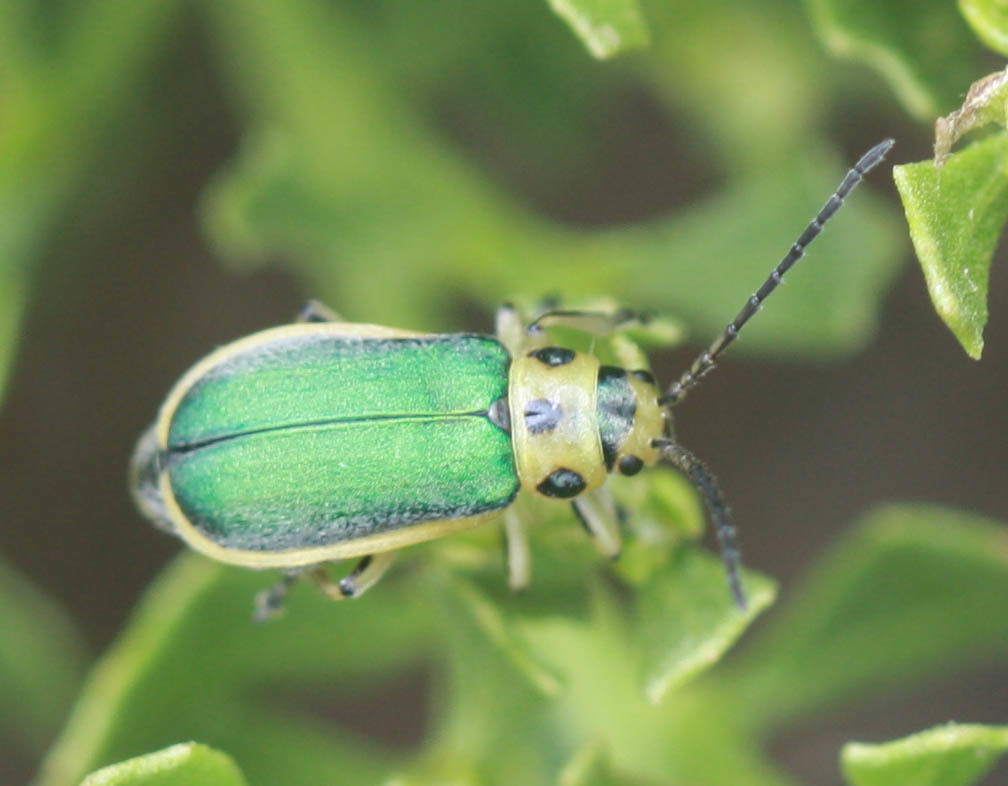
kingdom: Animalia
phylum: Arthropoda
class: Insecta
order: Coleoptera
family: Chrysomelidae
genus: Trirhabda
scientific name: Trirhabda flavolimbata
